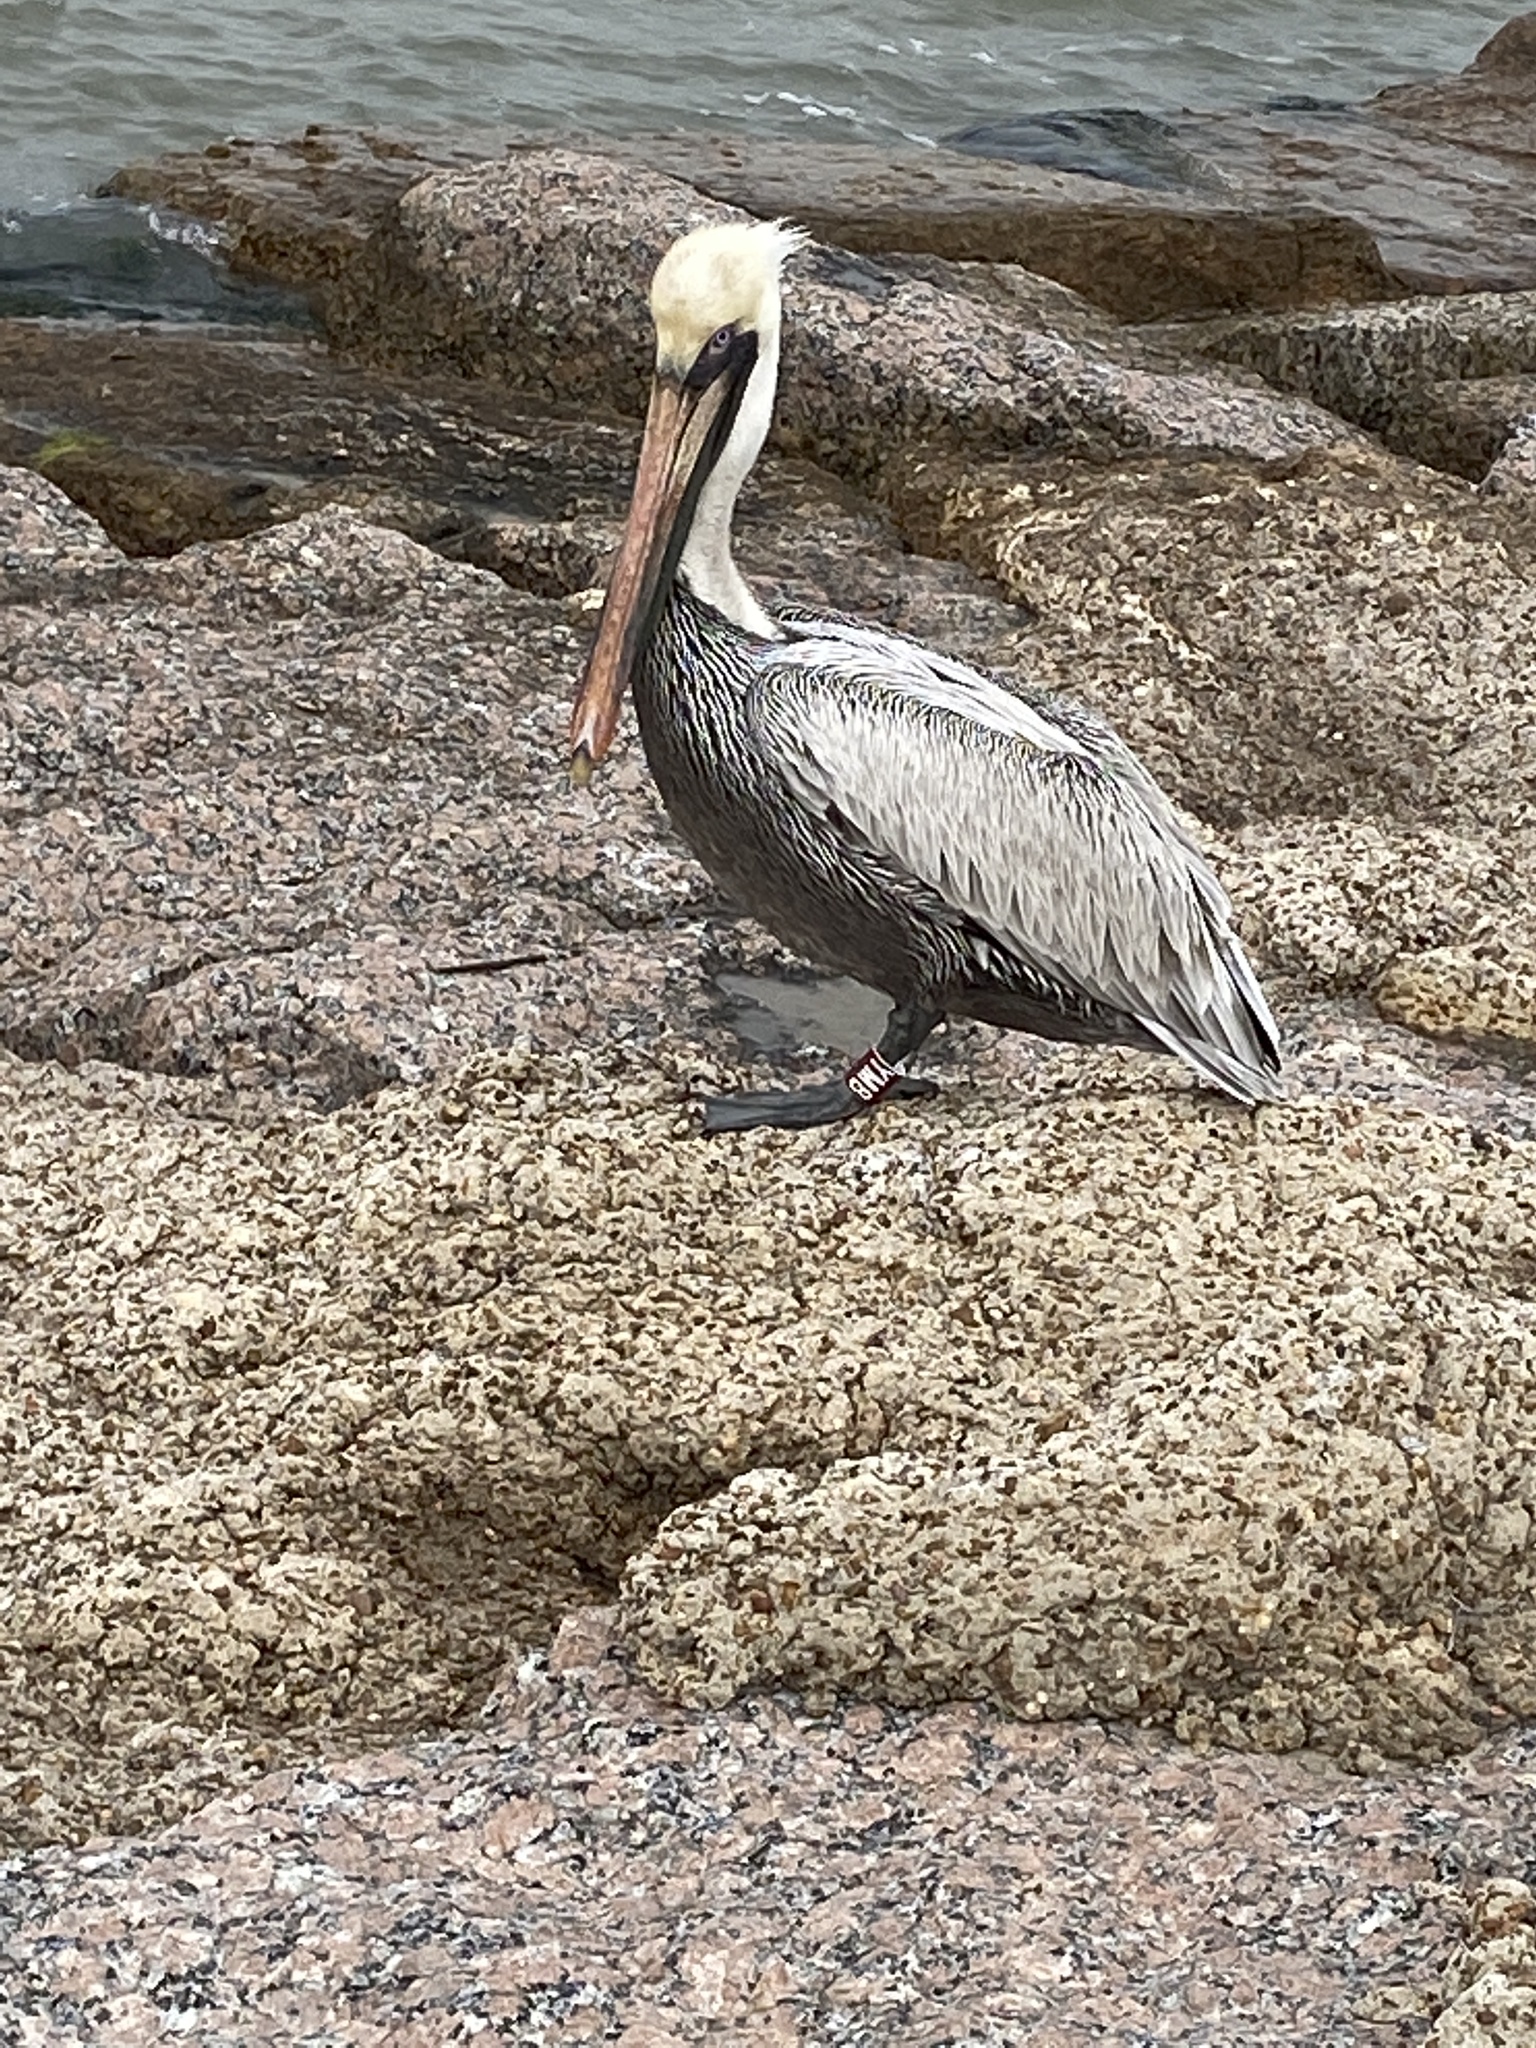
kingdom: Animalia
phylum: Chordata
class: Aves
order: Pelecaniformes
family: Pelecanidae
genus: Pelecanus
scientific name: Pelecanus occidentalis
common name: Brown pelican
